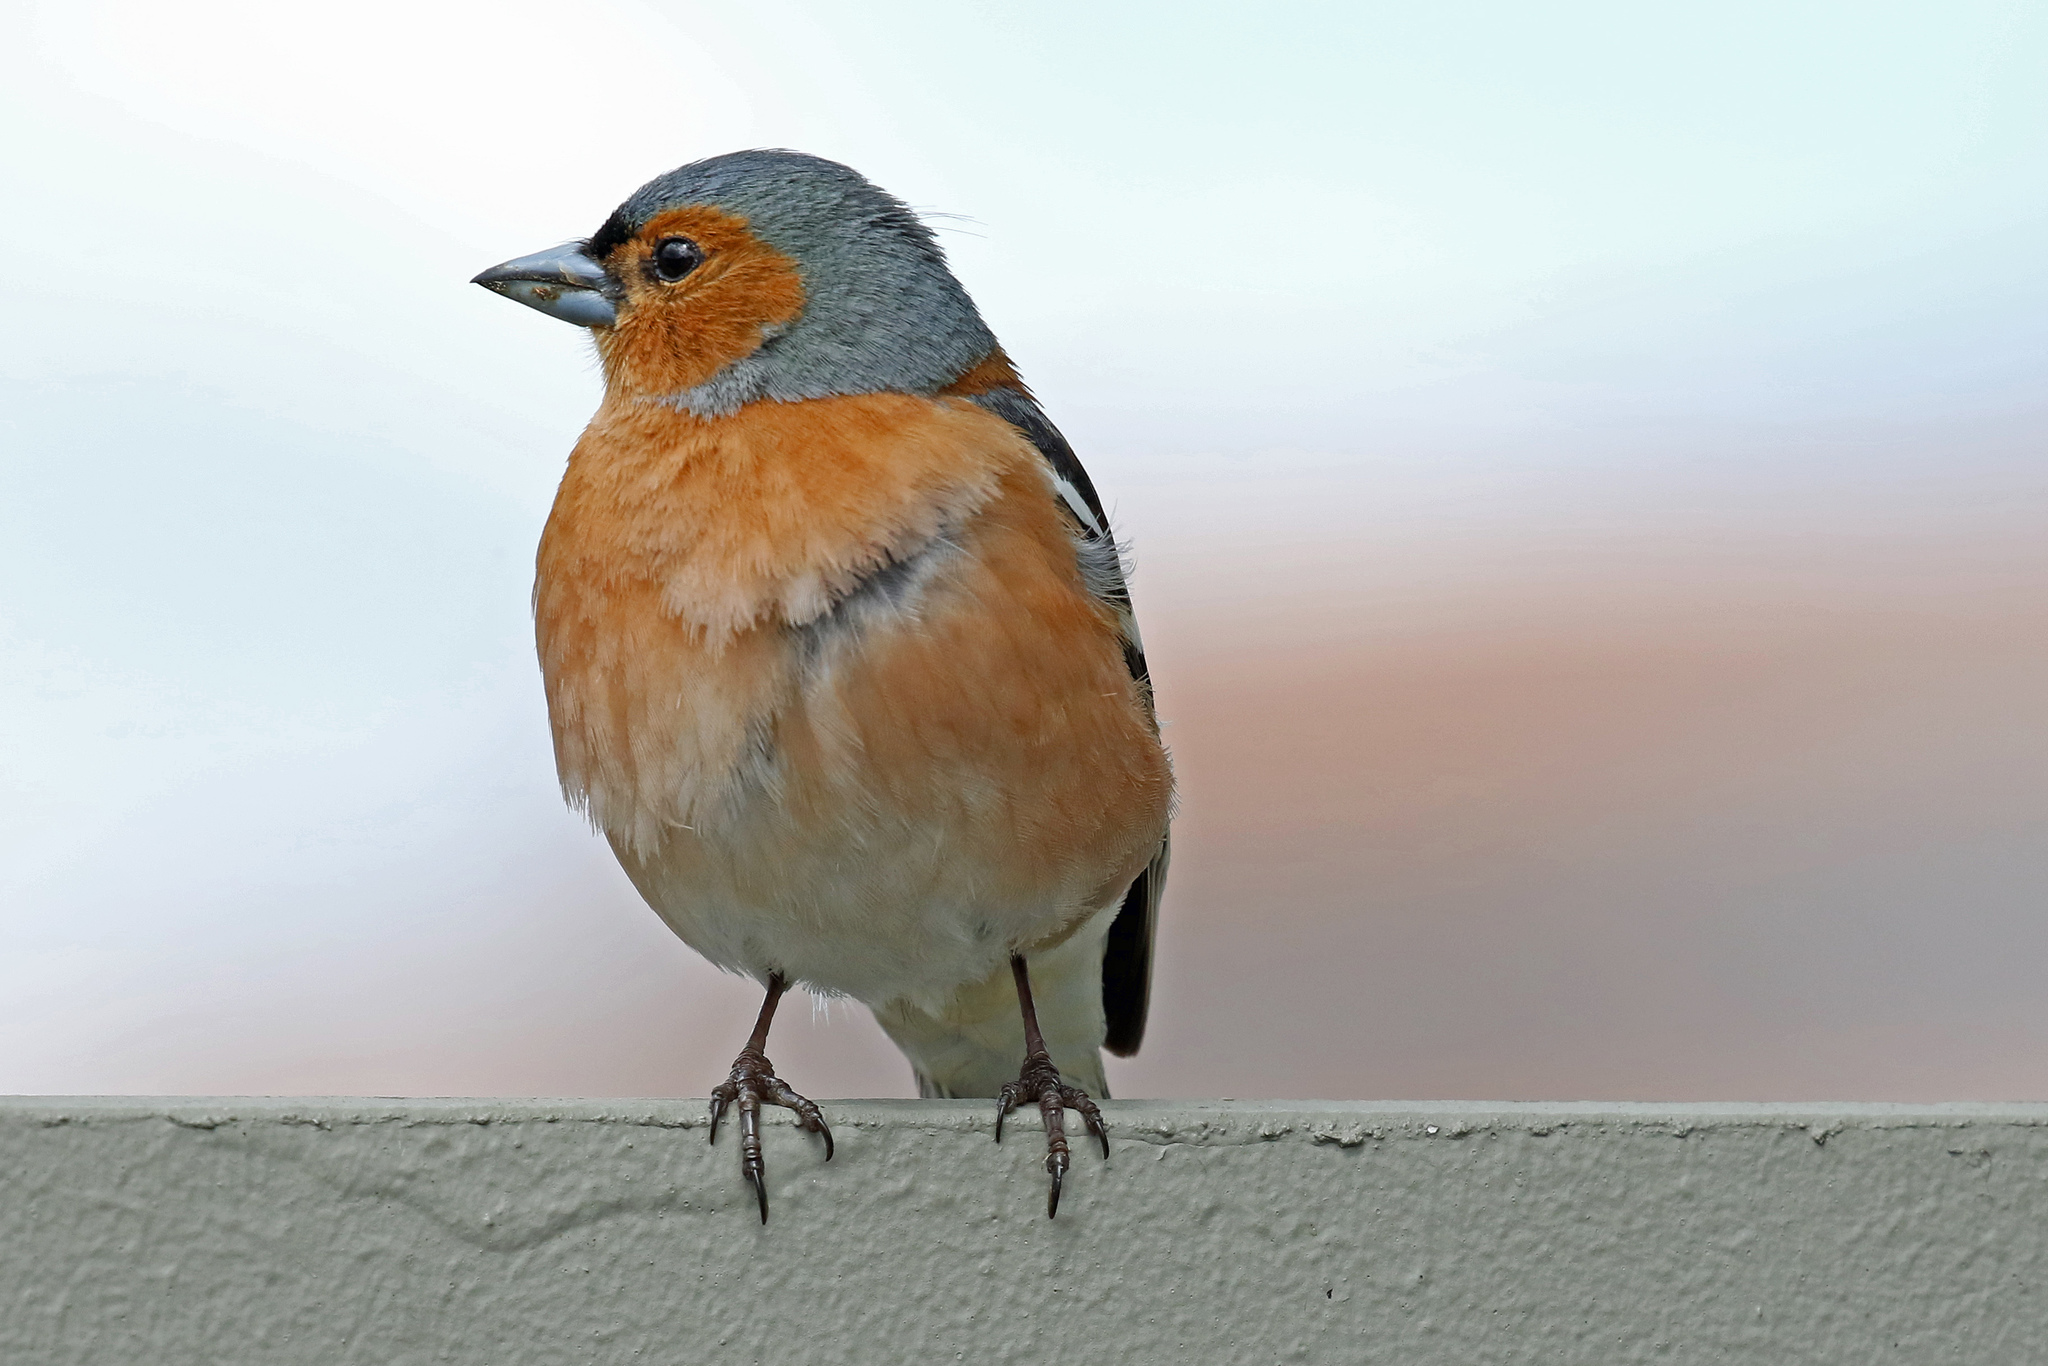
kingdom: Animalia
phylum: Chordata
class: Aves
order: Passeriformes
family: Fringillidae
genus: Fringilla
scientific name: Fringilla coelebs
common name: Common chaffinch
